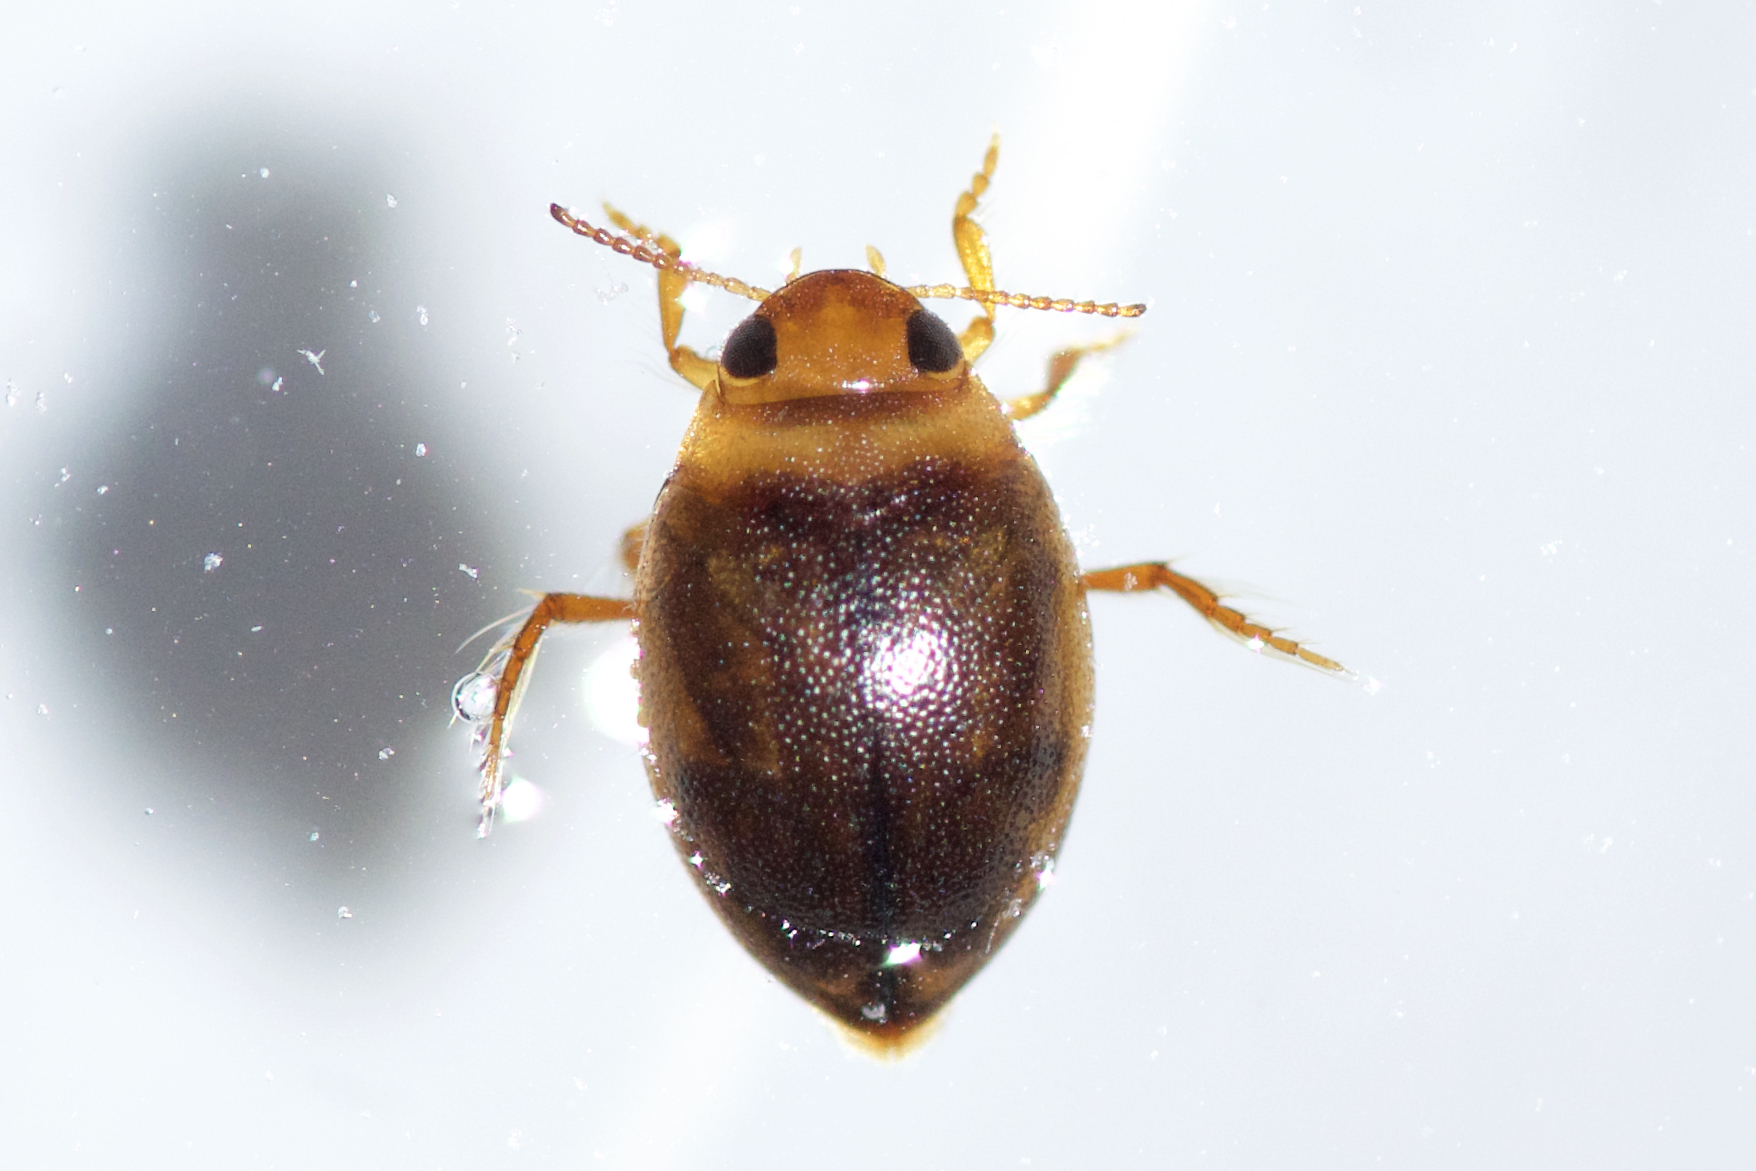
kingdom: Animalia
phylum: Arthropoda
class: Insecta
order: Coleoptera
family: Dytiscidae
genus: Hygrotus
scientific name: Hygrotus sayi
